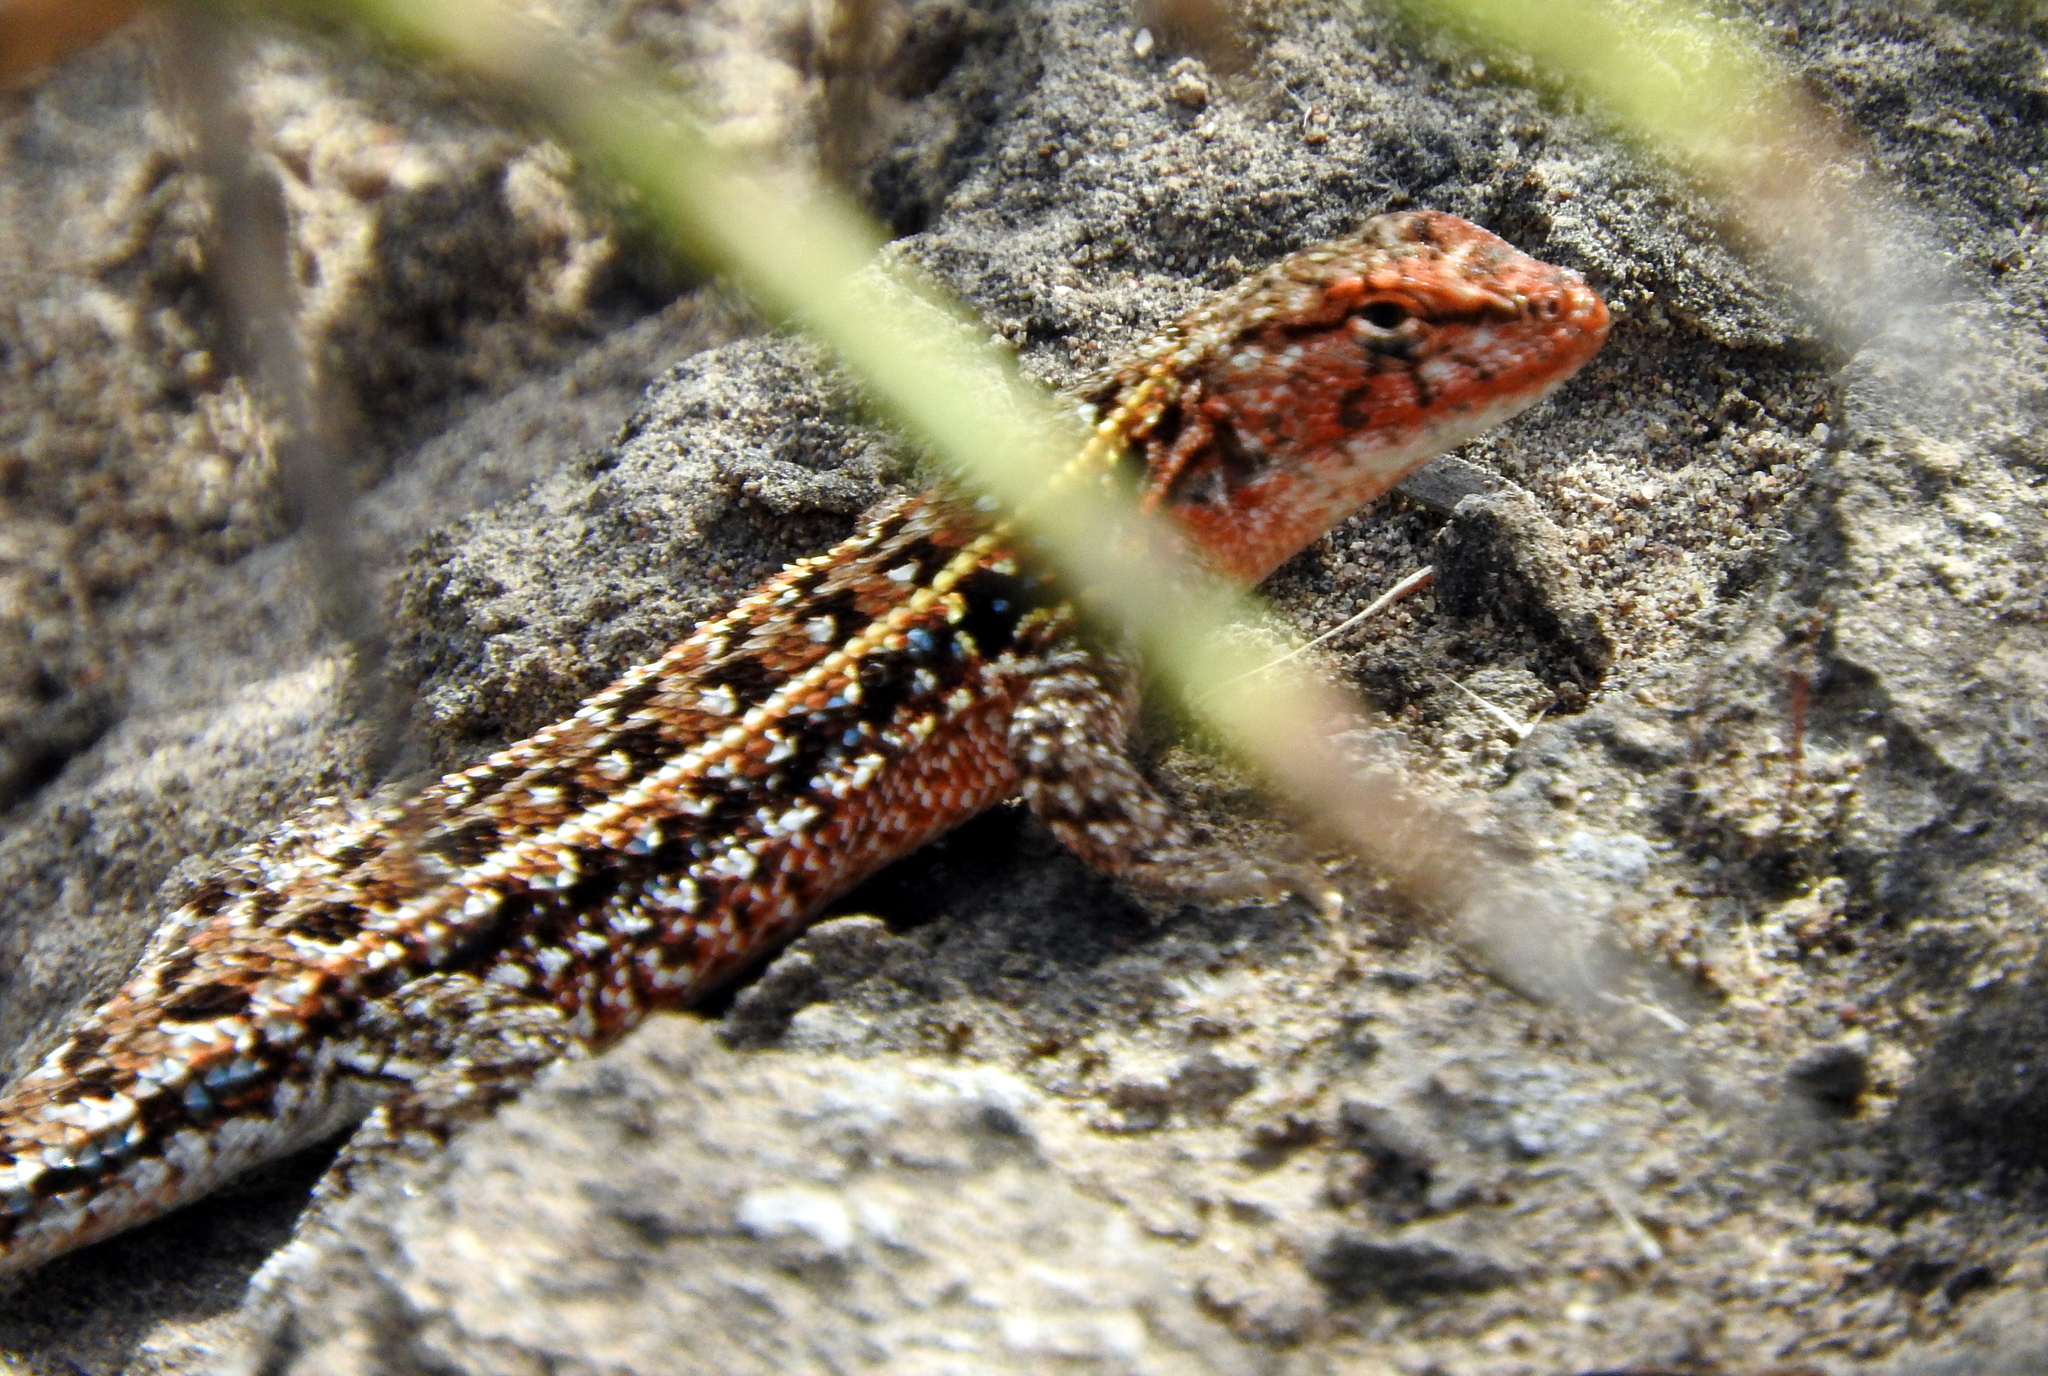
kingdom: Animalia
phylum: Chordata
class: Squamata
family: Liolaemidae
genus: Liolaemus
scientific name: Liolaemus wiegmannii
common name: Wiegmann's tree iguana
